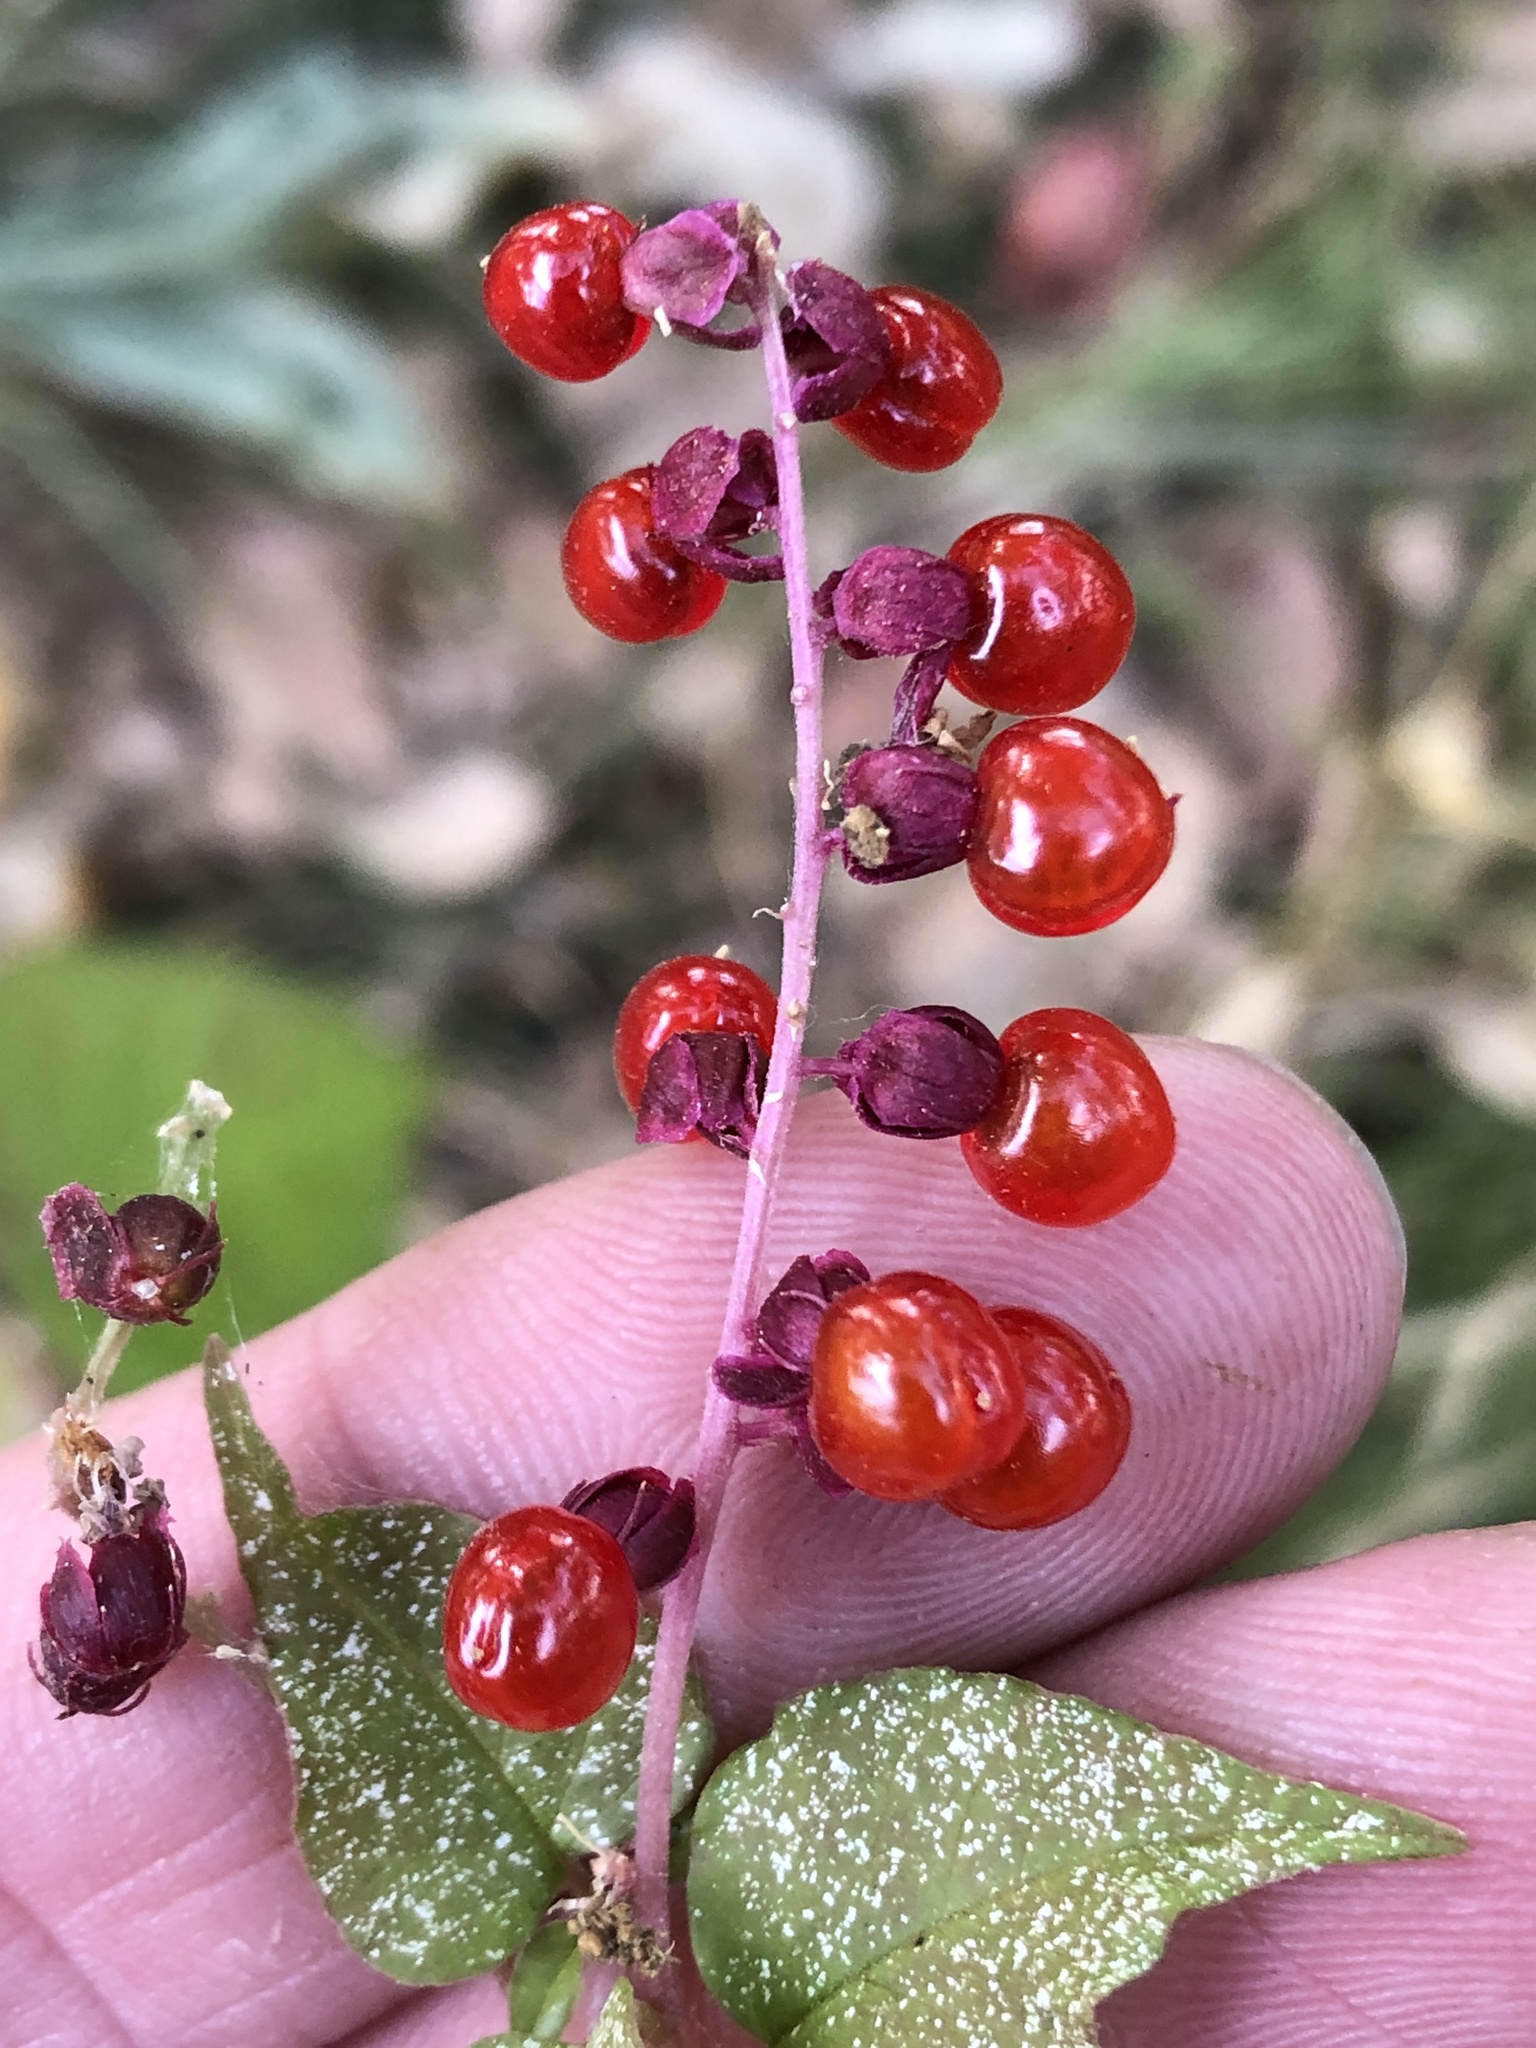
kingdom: Plantae
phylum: Tracheophyta
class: Magnoliopsida
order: Caryophyllales
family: Phytolaccaceae
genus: Rivina
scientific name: Rivina humilis
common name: Rougeplant
